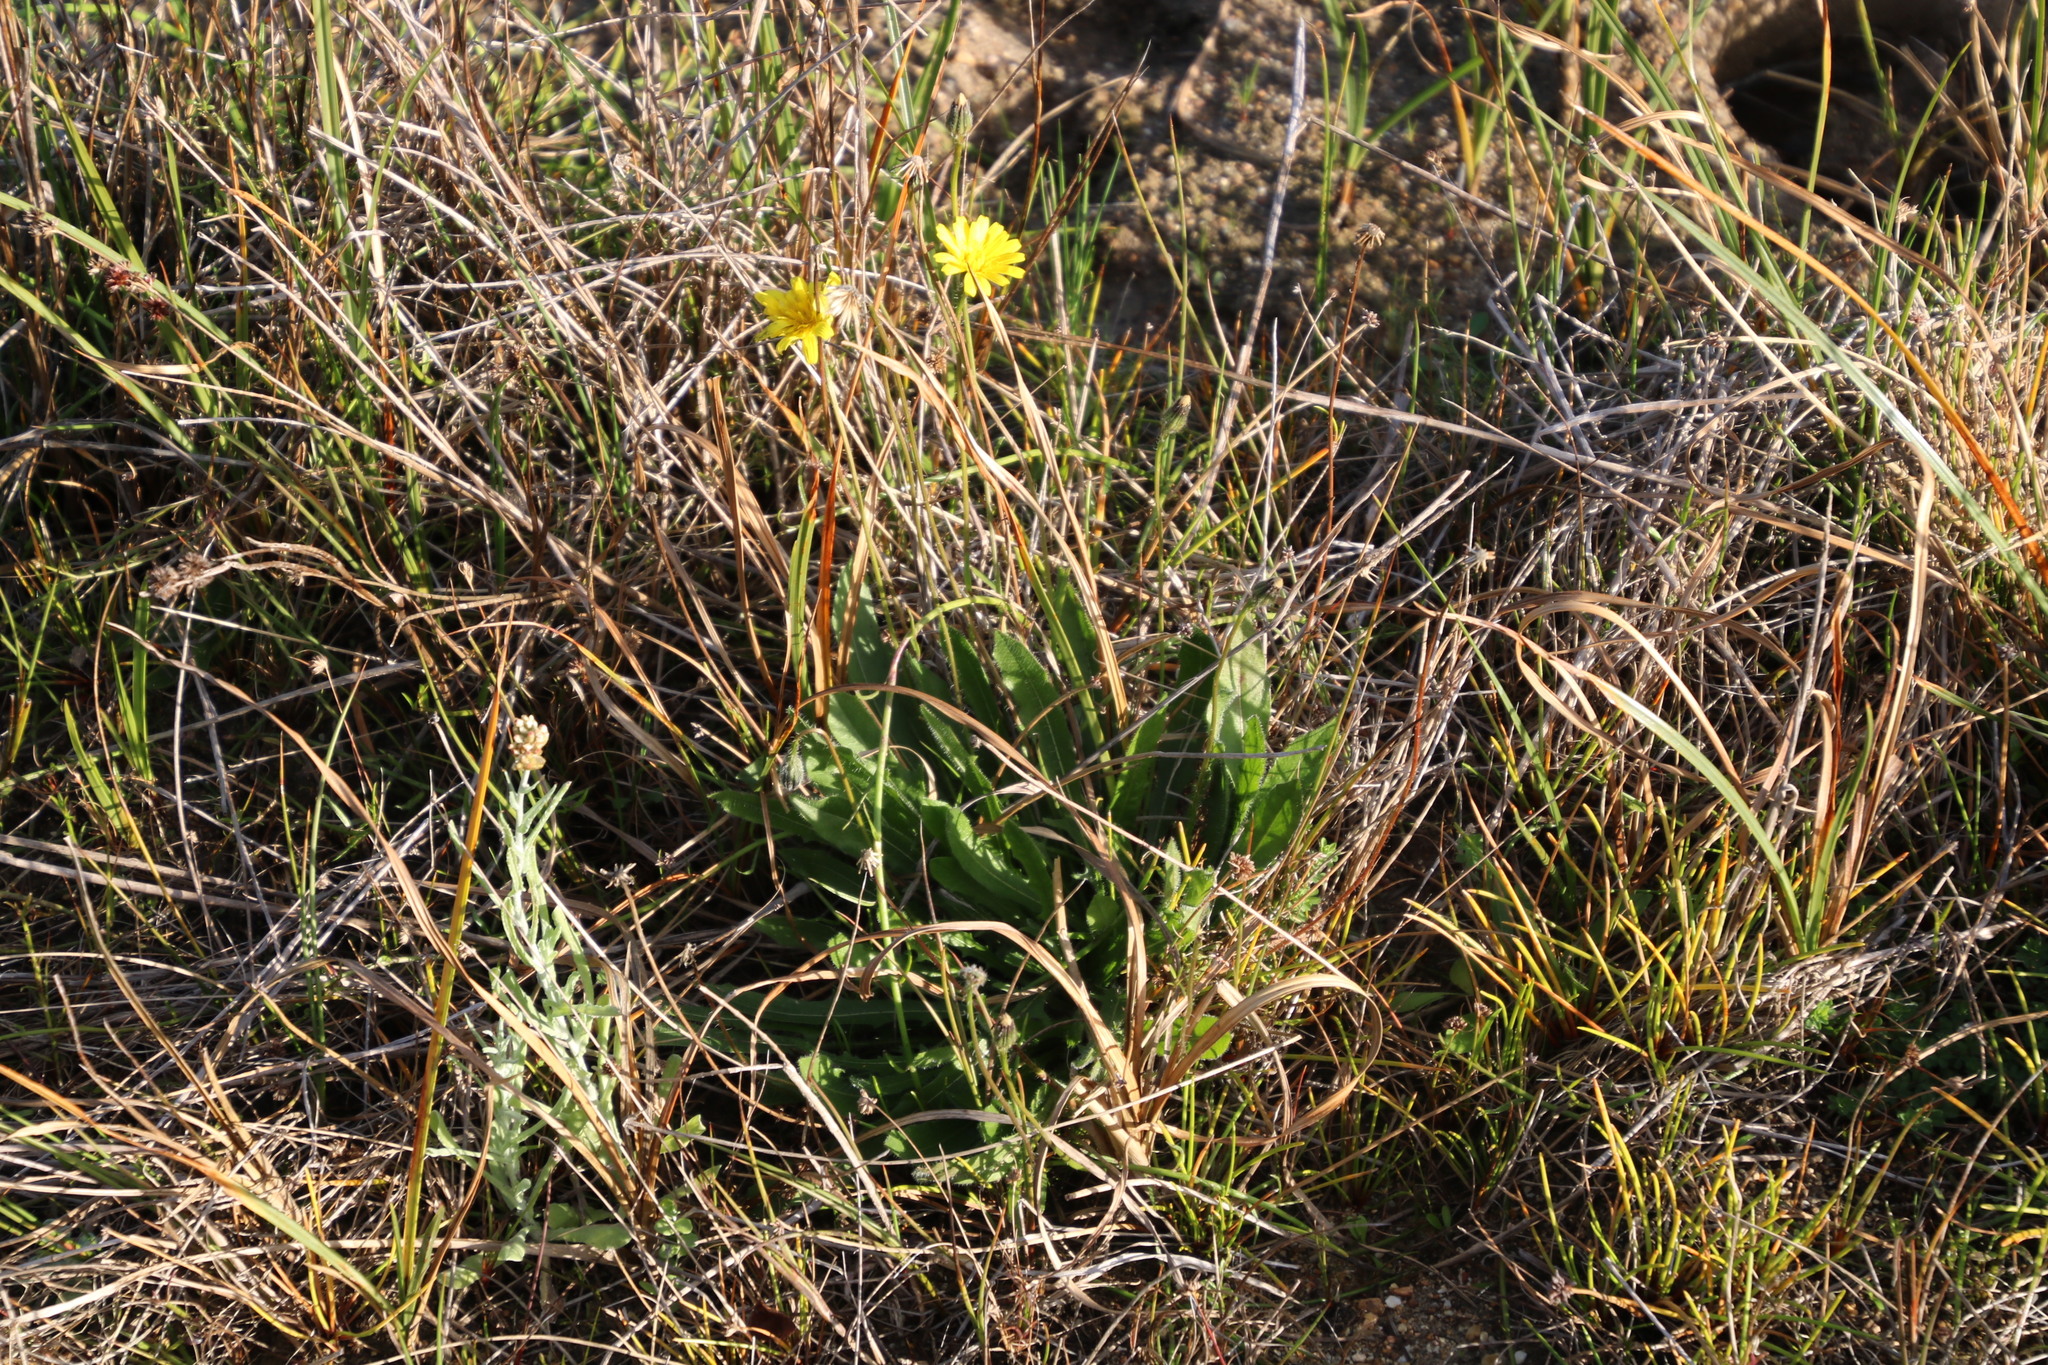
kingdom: Plantae
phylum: Tracheophyta
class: Magnoliopsida
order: Asterales
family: Asteraceae
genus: Hypochaeris
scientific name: Hypochaeris radicata
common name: Flatweed
